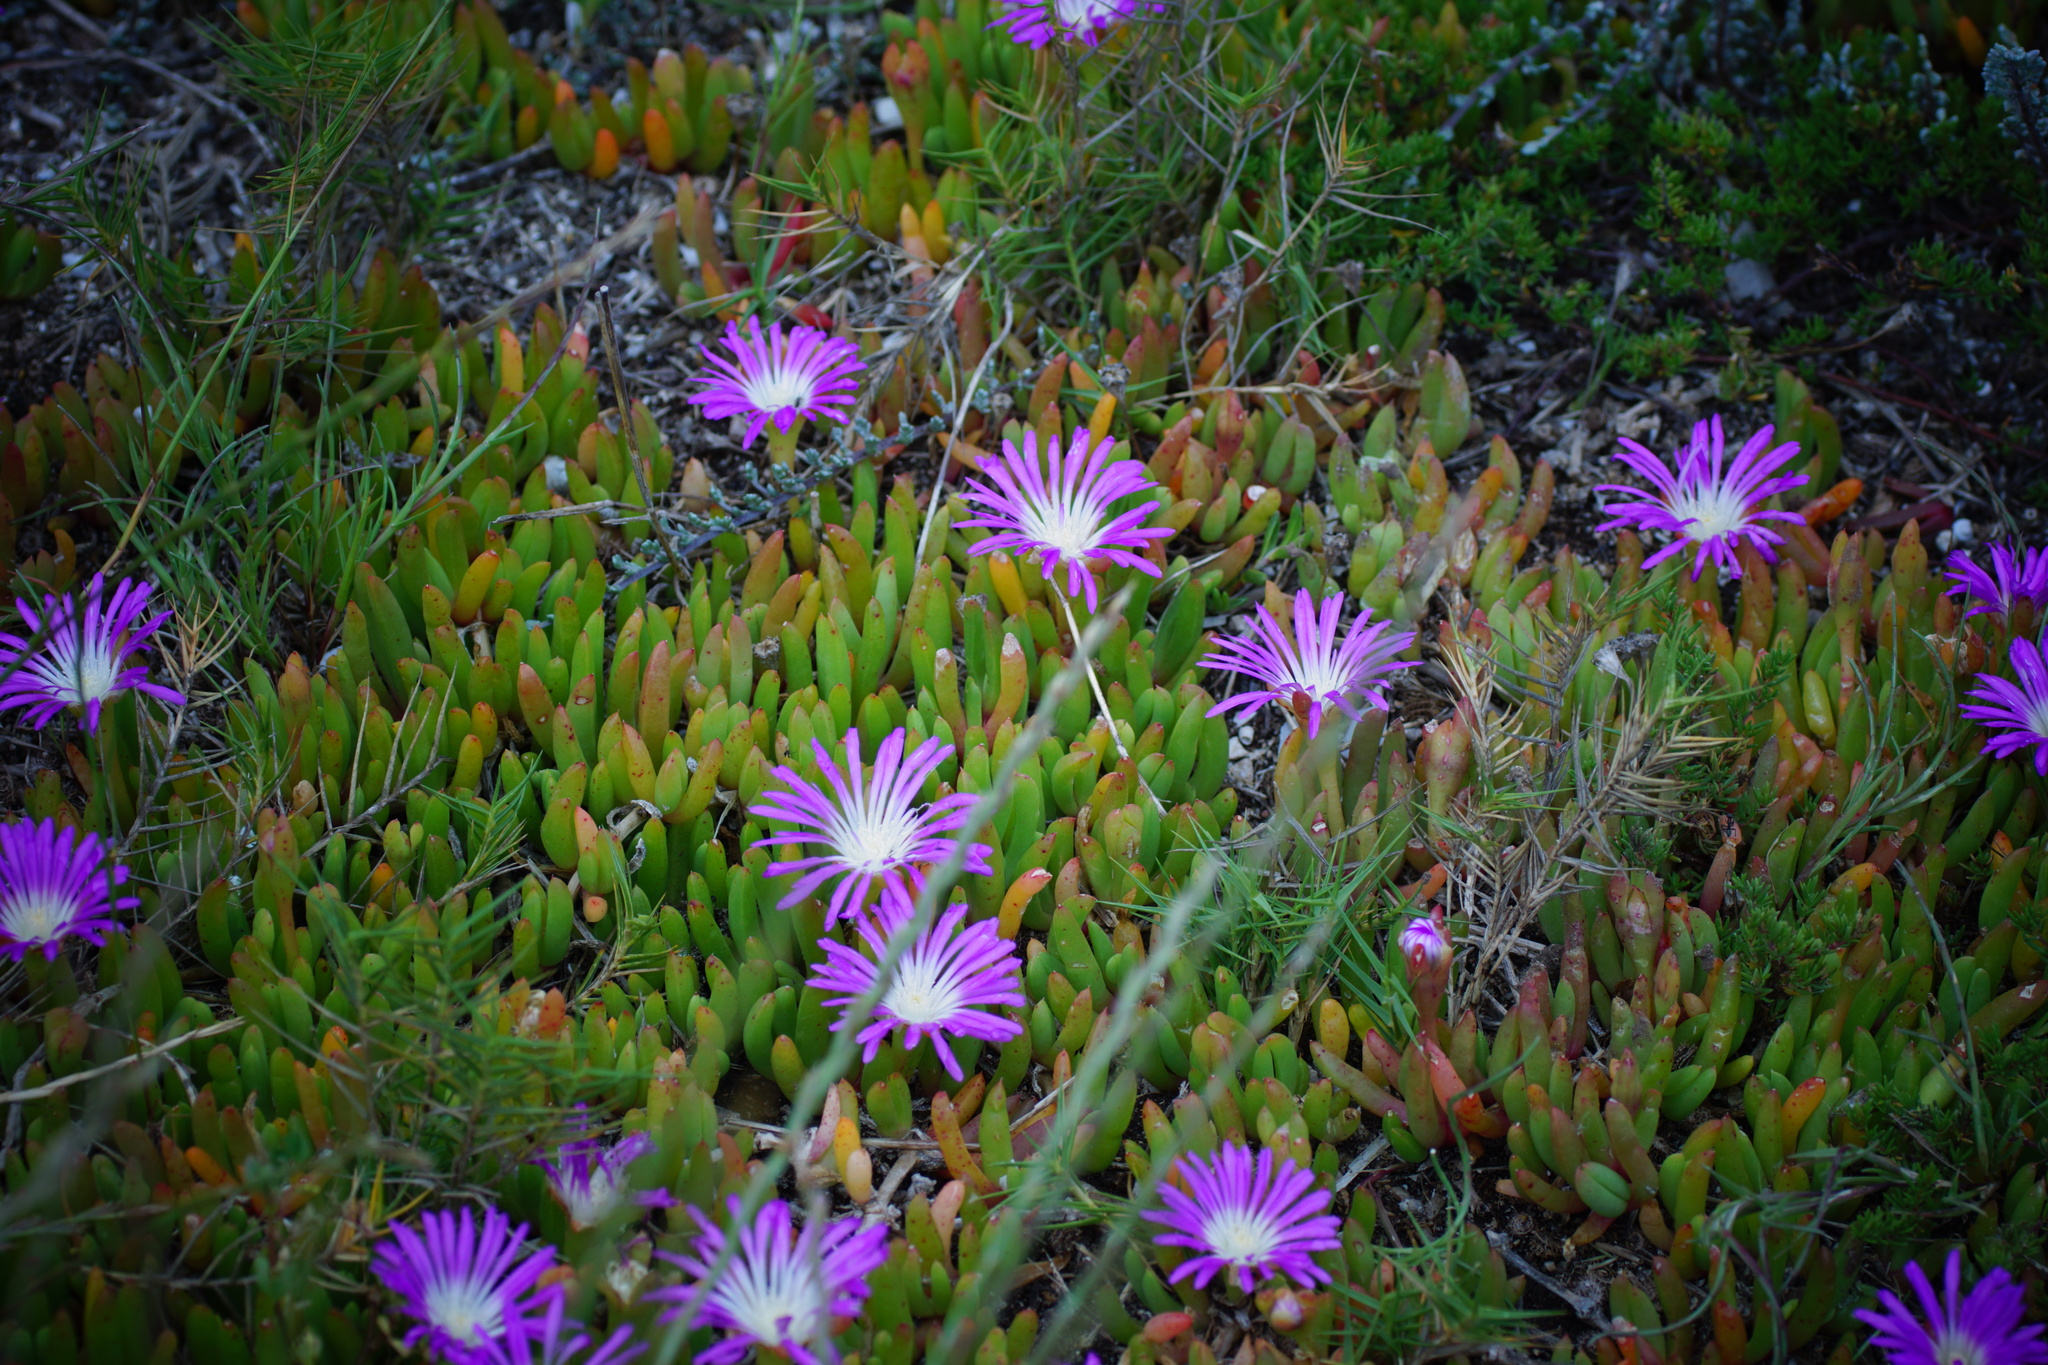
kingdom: Plantae
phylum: Tracheophyta
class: Magnoliopsida
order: Caryophyllales
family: Aizoaceae
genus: Disphyma
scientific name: Disphyma clavellatum
